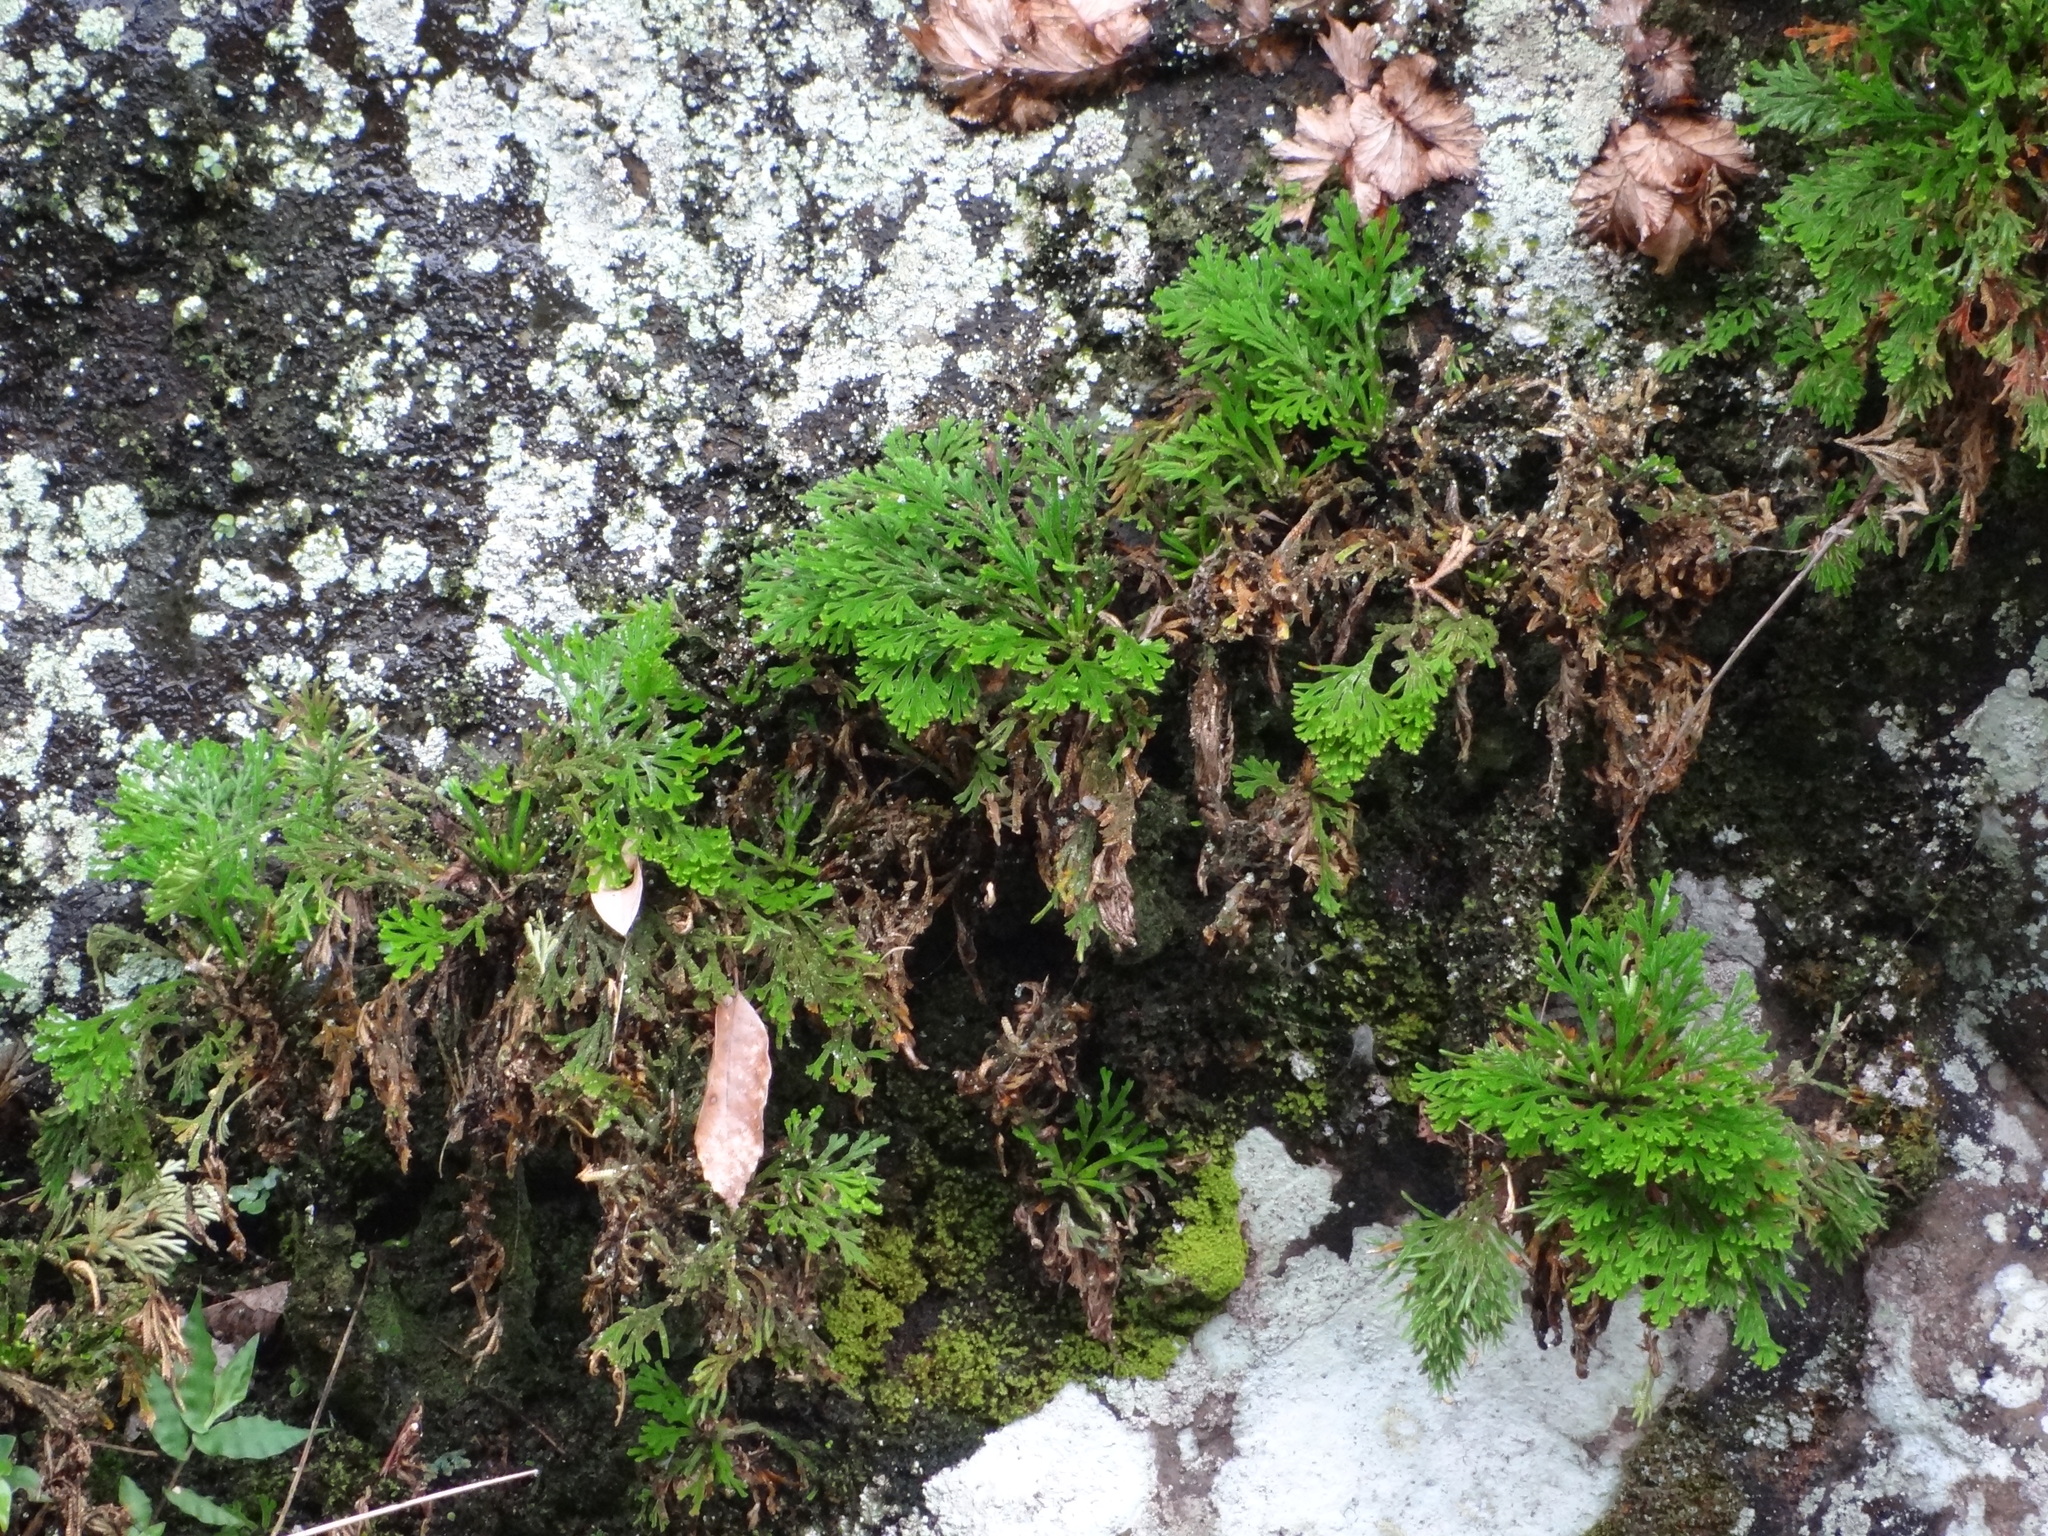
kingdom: Plantae
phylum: Tracheophyta
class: Lycopodiopsida
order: Selaginellales
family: Selaginellaceae
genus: Selaginella
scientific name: Selaginella tamariscina
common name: Little-club-moss
